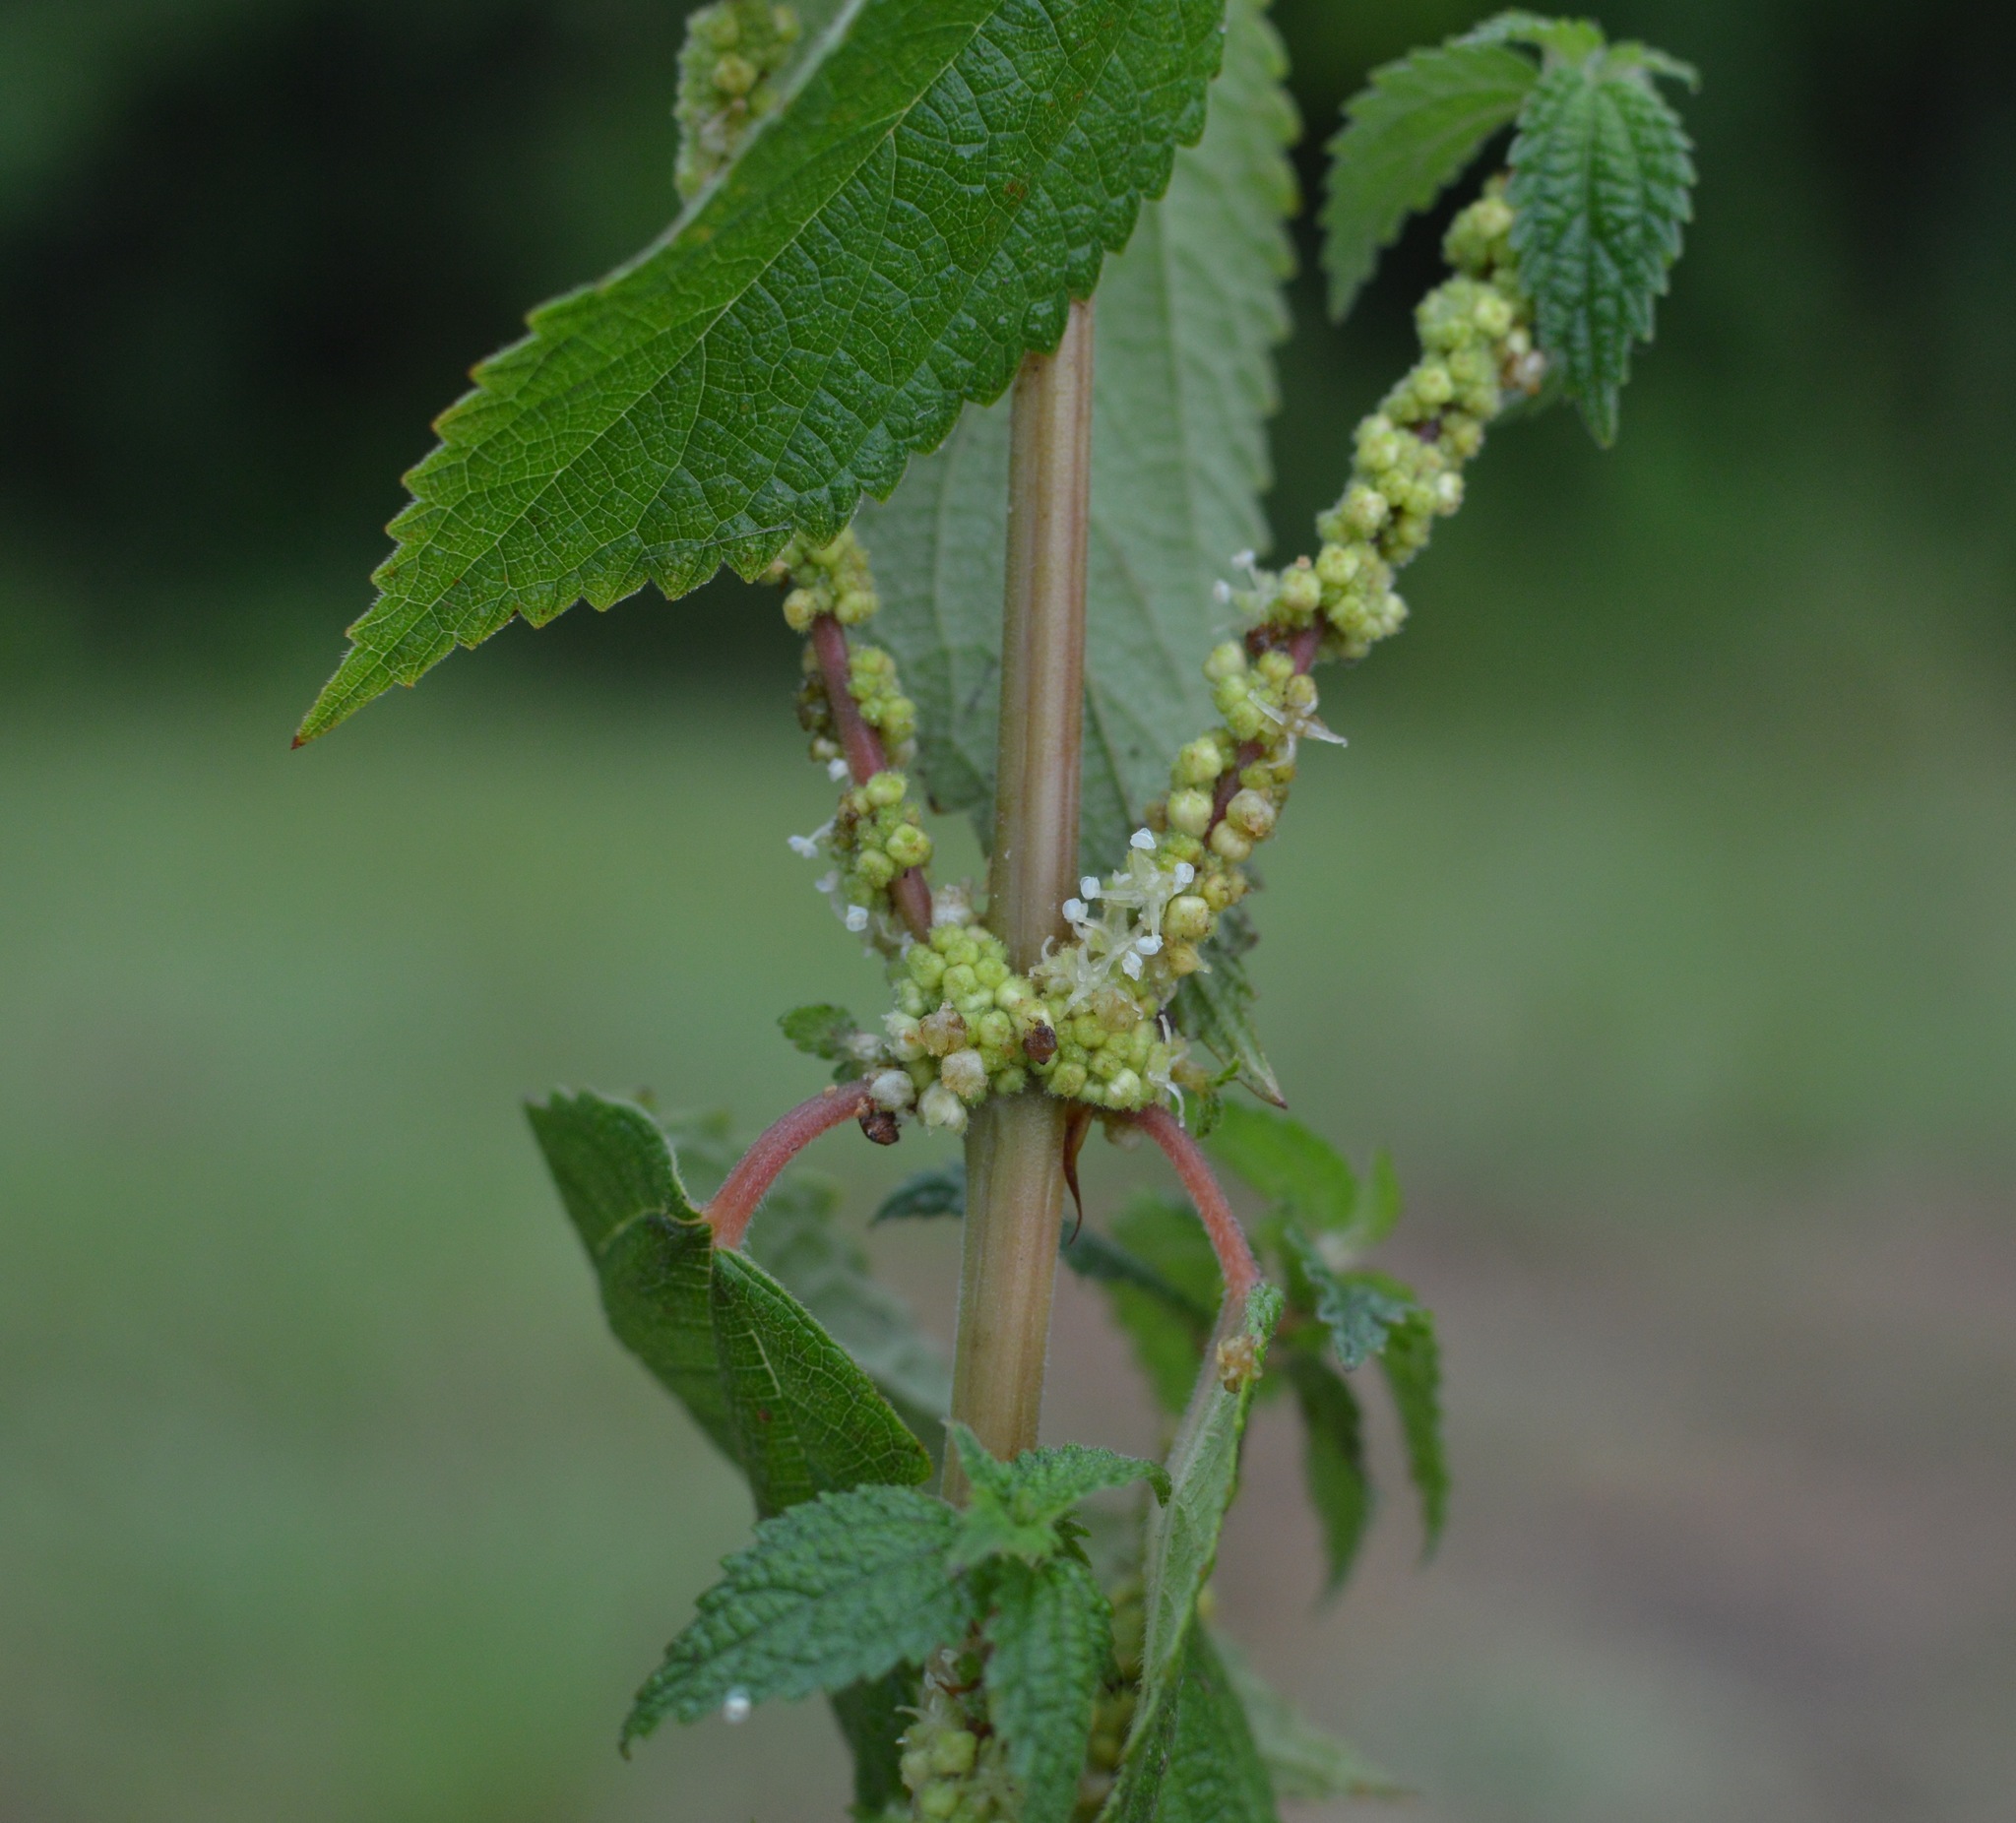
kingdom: Plantae
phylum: Tracheophyta
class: Magnoliopsida
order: Rosales
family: Urticaceae
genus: Boehmeria
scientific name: Boehmeria cylindrica
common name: Bog-hemp
